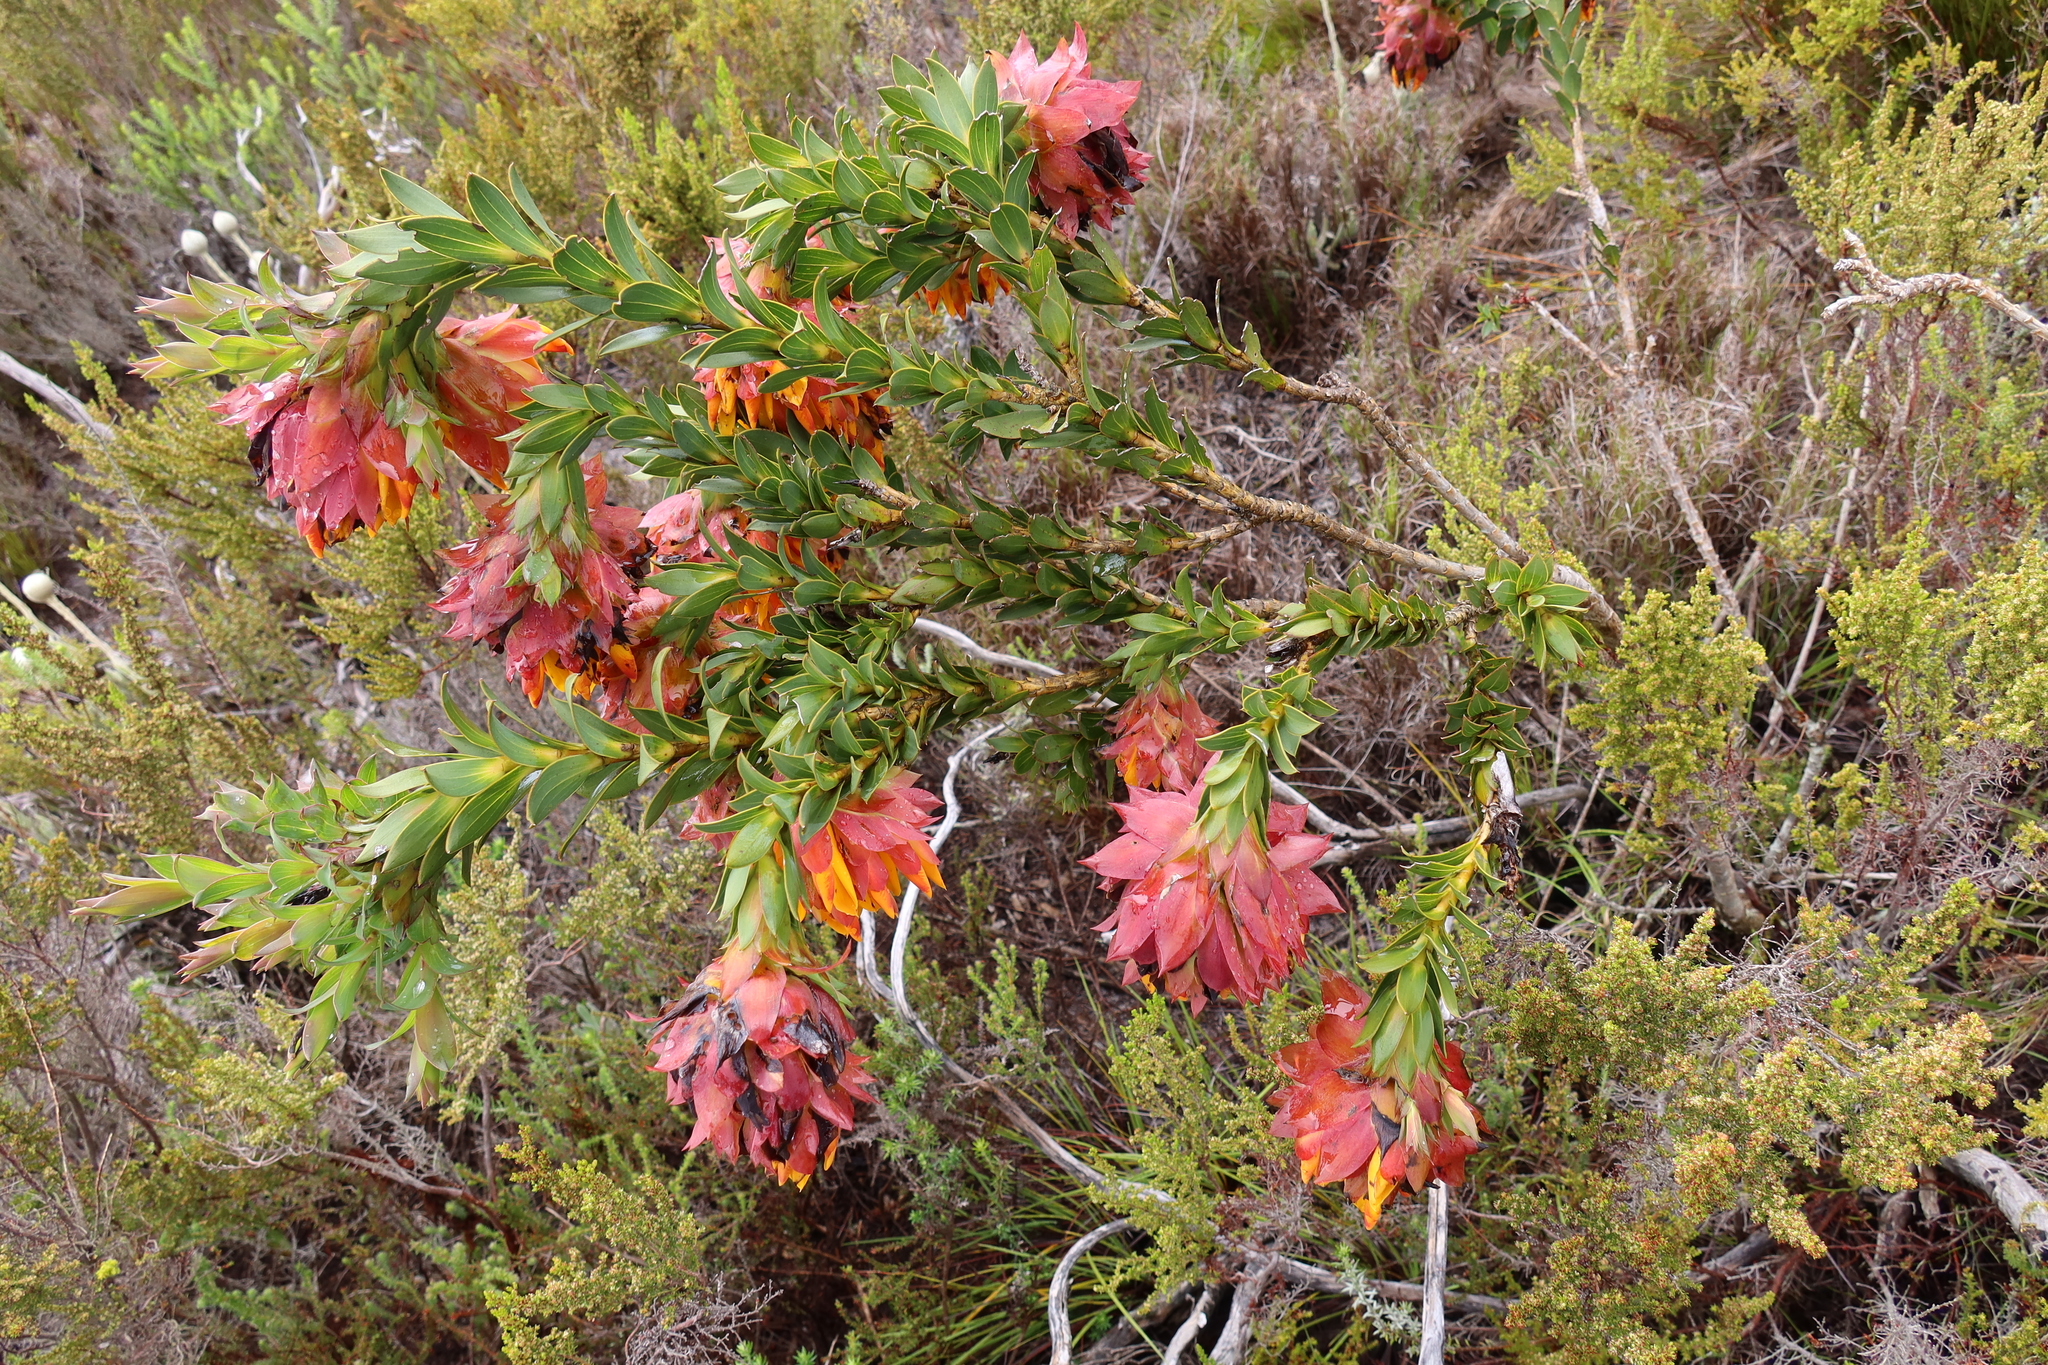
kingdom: Plantae
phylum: Tracheophyta
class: Magnoliopsida
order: Fabales
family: Fabaceae
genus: Liparia
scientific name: Liparia splendens
